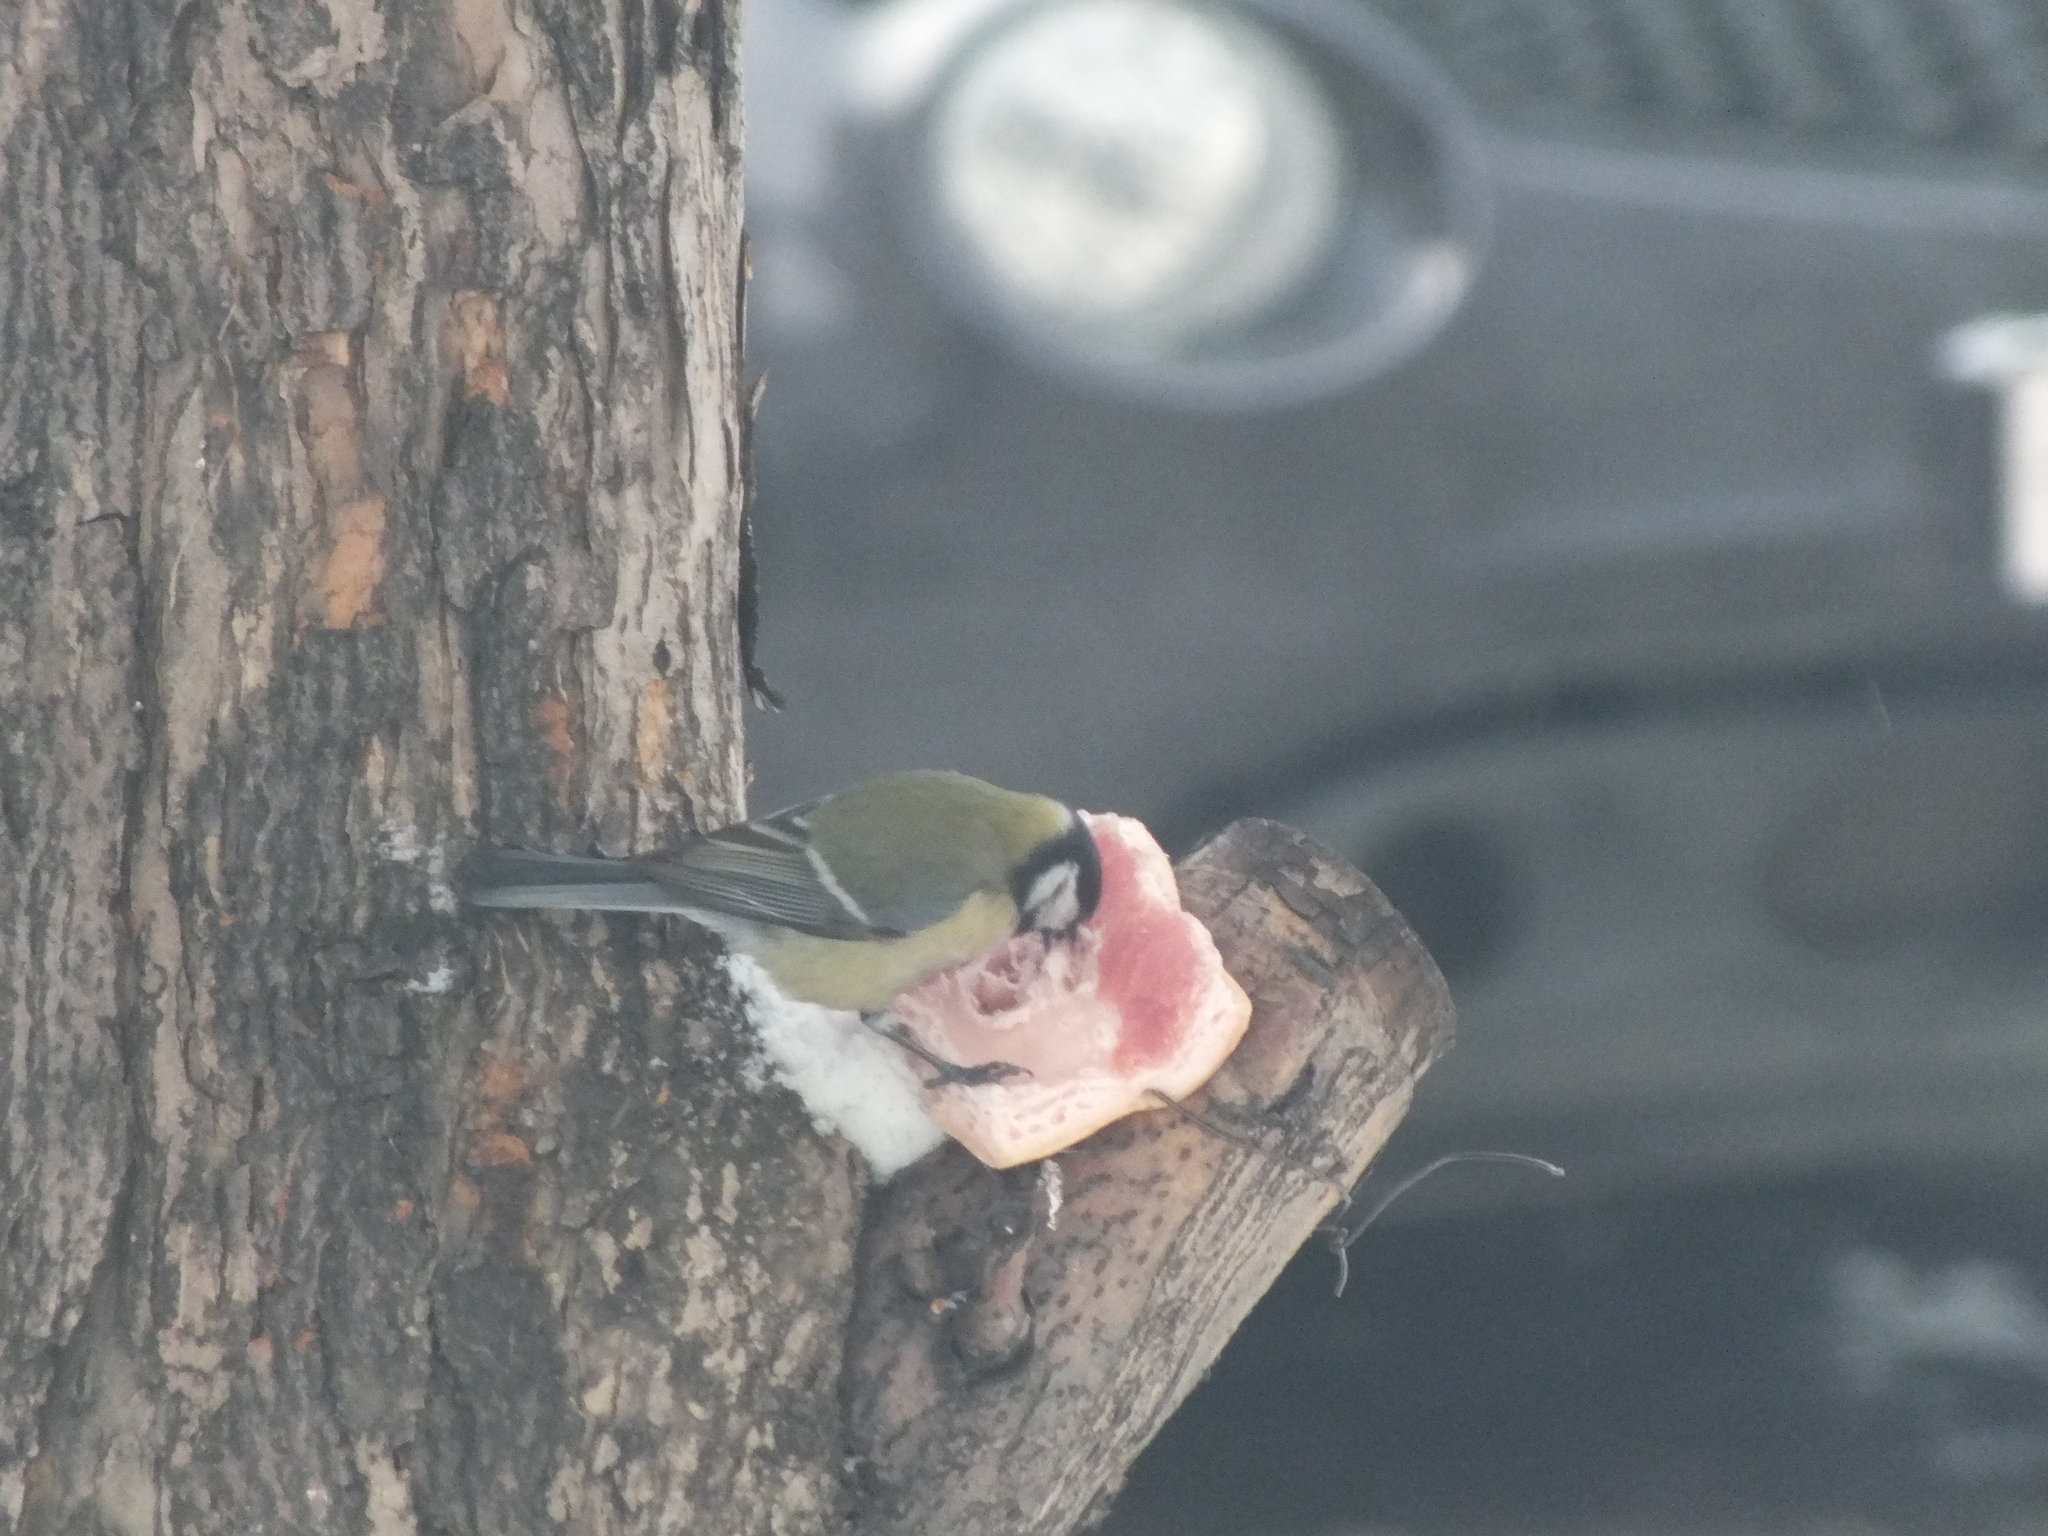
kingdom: Animalia
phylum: Chordata
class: Aves
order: Passeriformes
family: Paridae
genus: Parus
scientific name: Parus major
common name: Great tit
